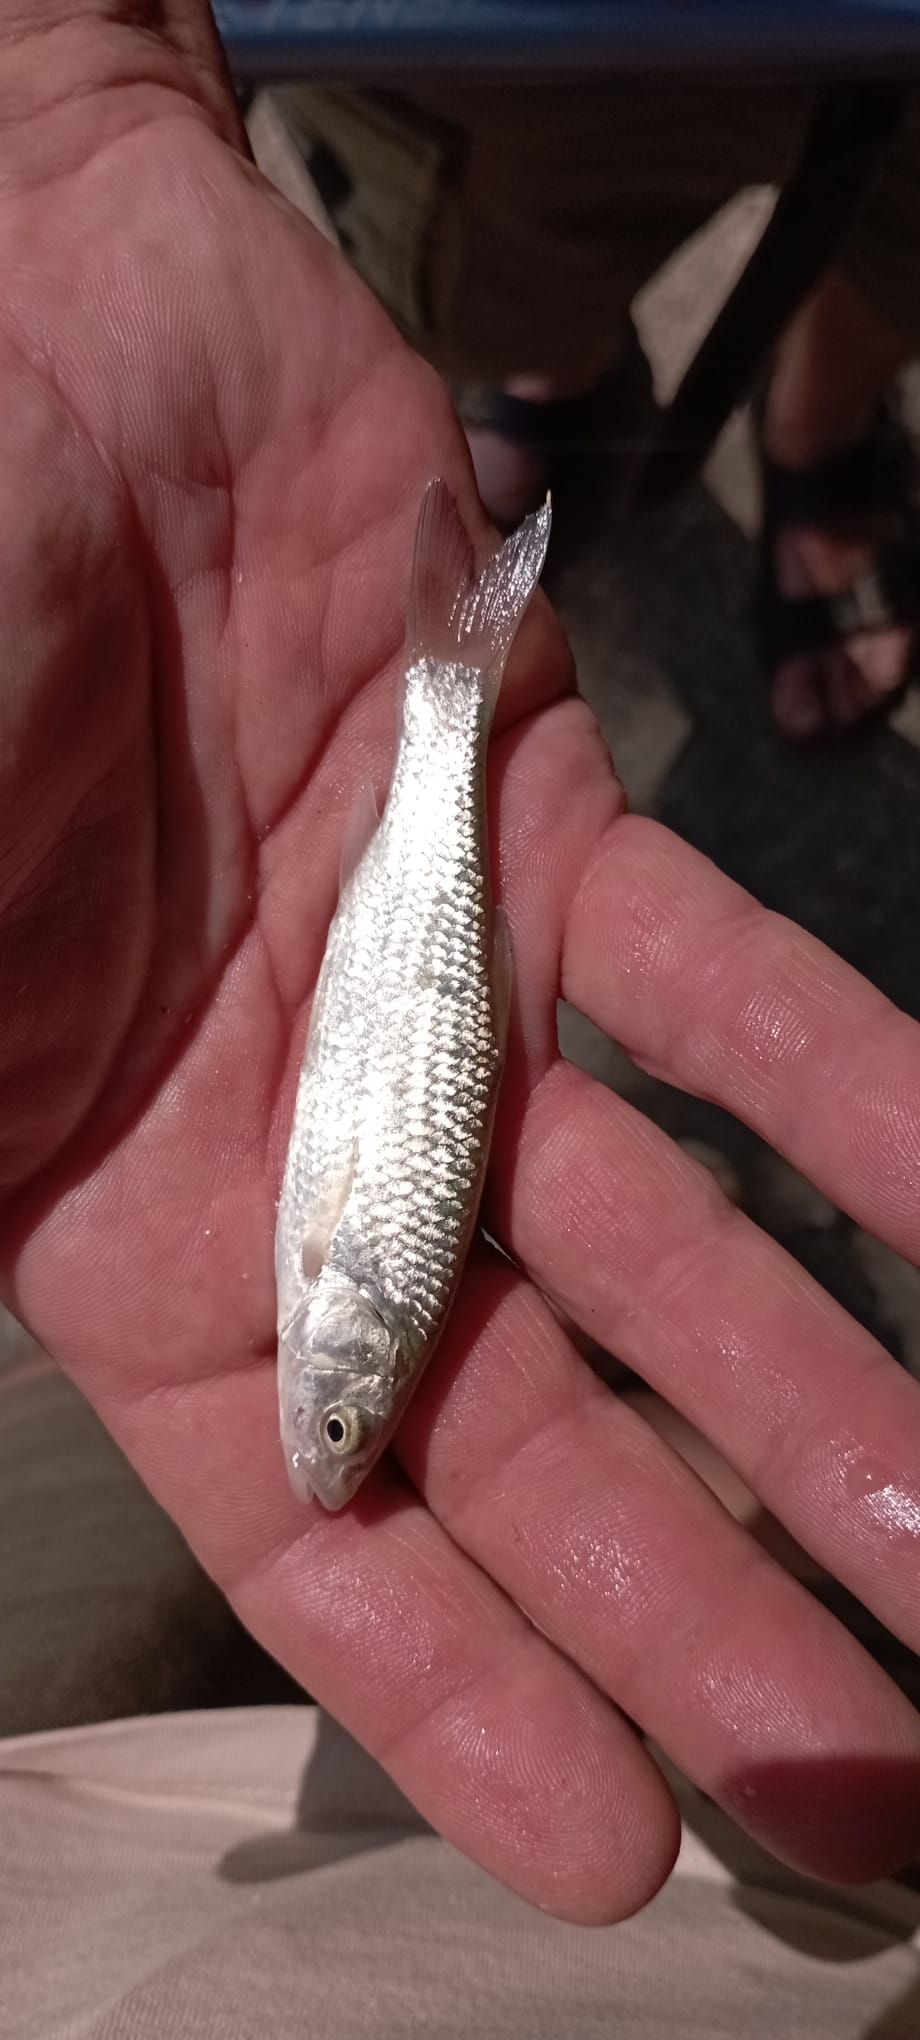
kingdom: Animalia
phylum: Chordata
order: Cypriniformes
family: Cyprinidae
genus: Squalius
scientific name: Squalius squalus
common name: Italian chub
